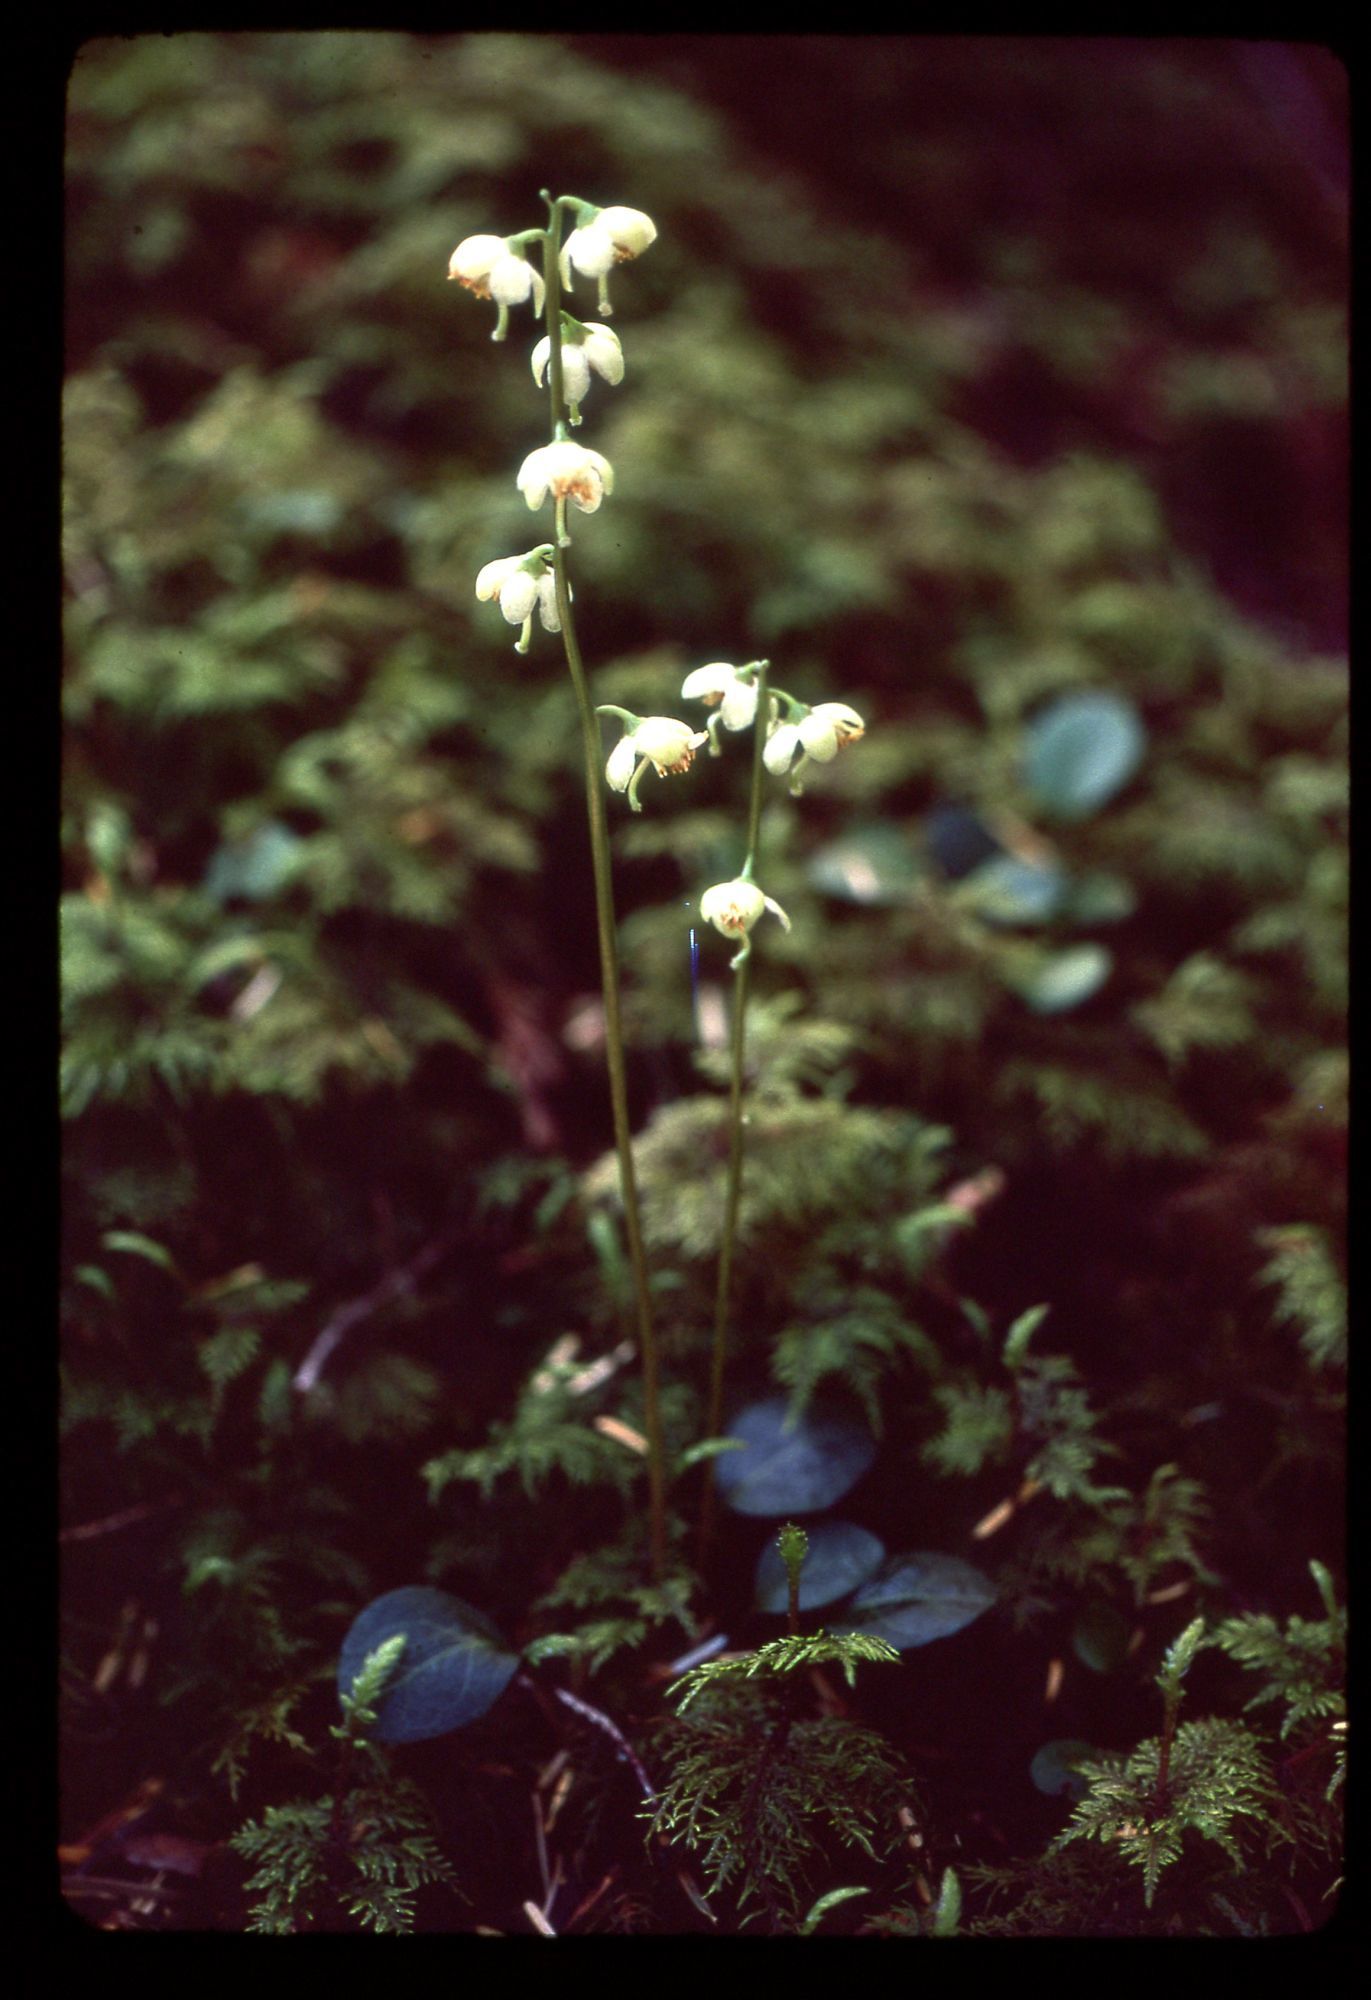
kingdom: Plantae
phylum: Tracheophyta
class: Magnoliopsida
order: Ericales
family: Ericaceae
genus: Pyrola
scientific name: Pyrola chlorantha
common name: Green wintergreen
